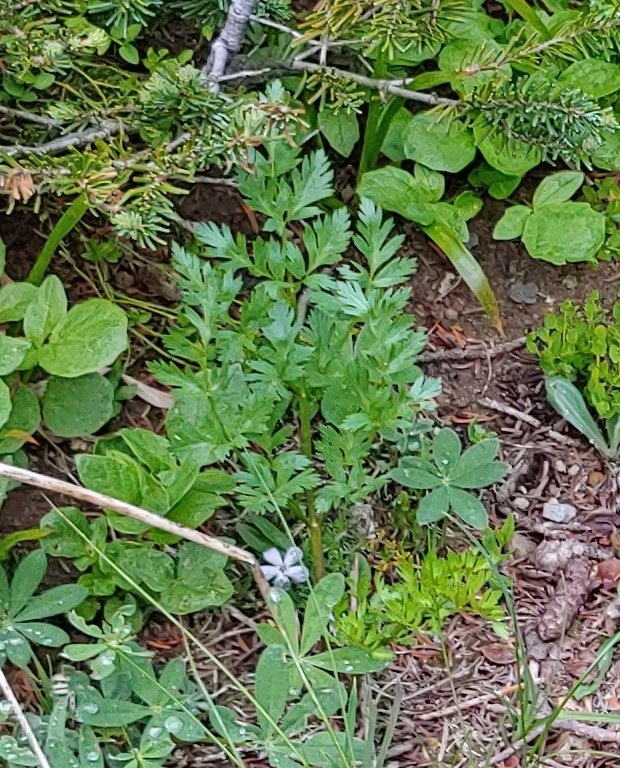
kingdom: Plantae
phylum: Tracheophyta
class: Magnoliopsida
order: Apiales
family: Apiaceae
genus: Ligusticum
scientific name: Ligusticum grayi
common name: Gray's licorice-root
